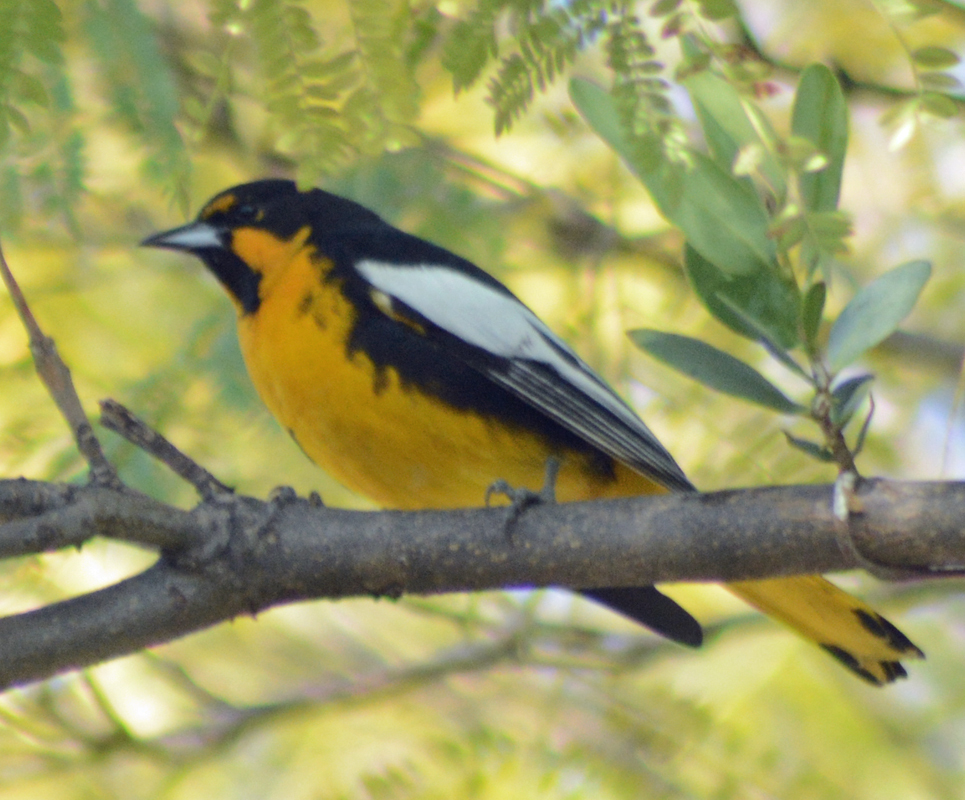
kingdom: Animalia
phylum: Chordata
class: Aves
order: Passeriformes
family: Icteridae
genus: Icterus
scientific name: Icterus abeillei
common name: Black-backed oriole
